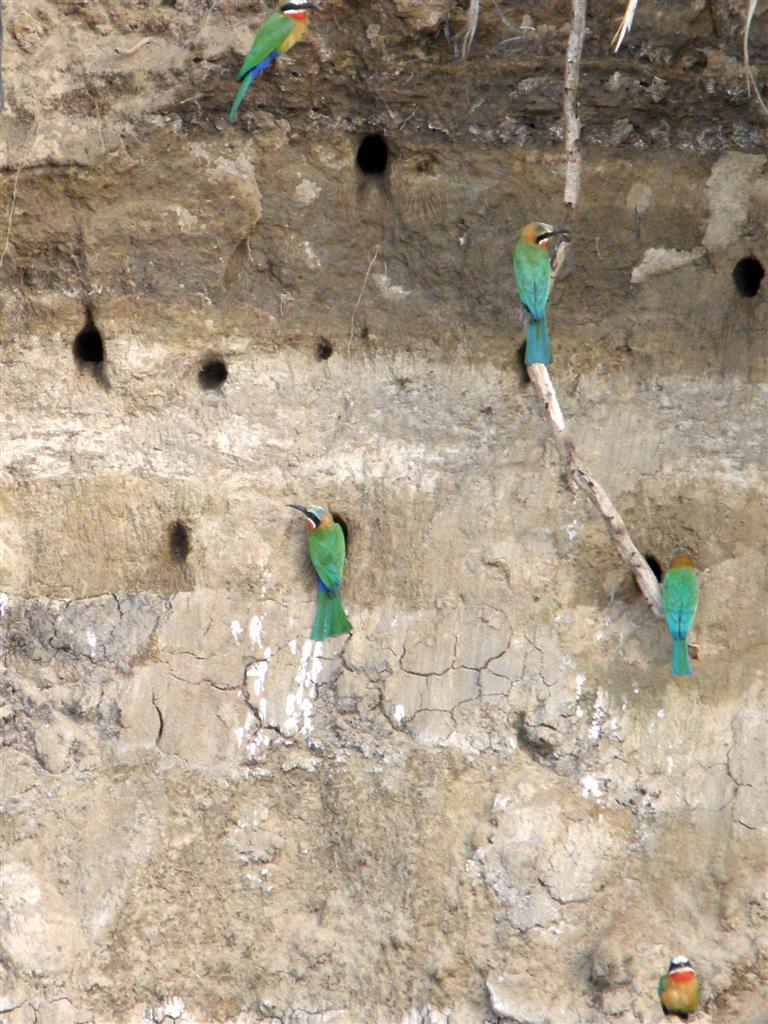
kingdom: Animalia
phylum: Chordata
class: Aves
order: Coraciiformes
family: Meropidae
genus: Merops
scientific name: Merops bullockoides
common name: White-fronted bee-eater
